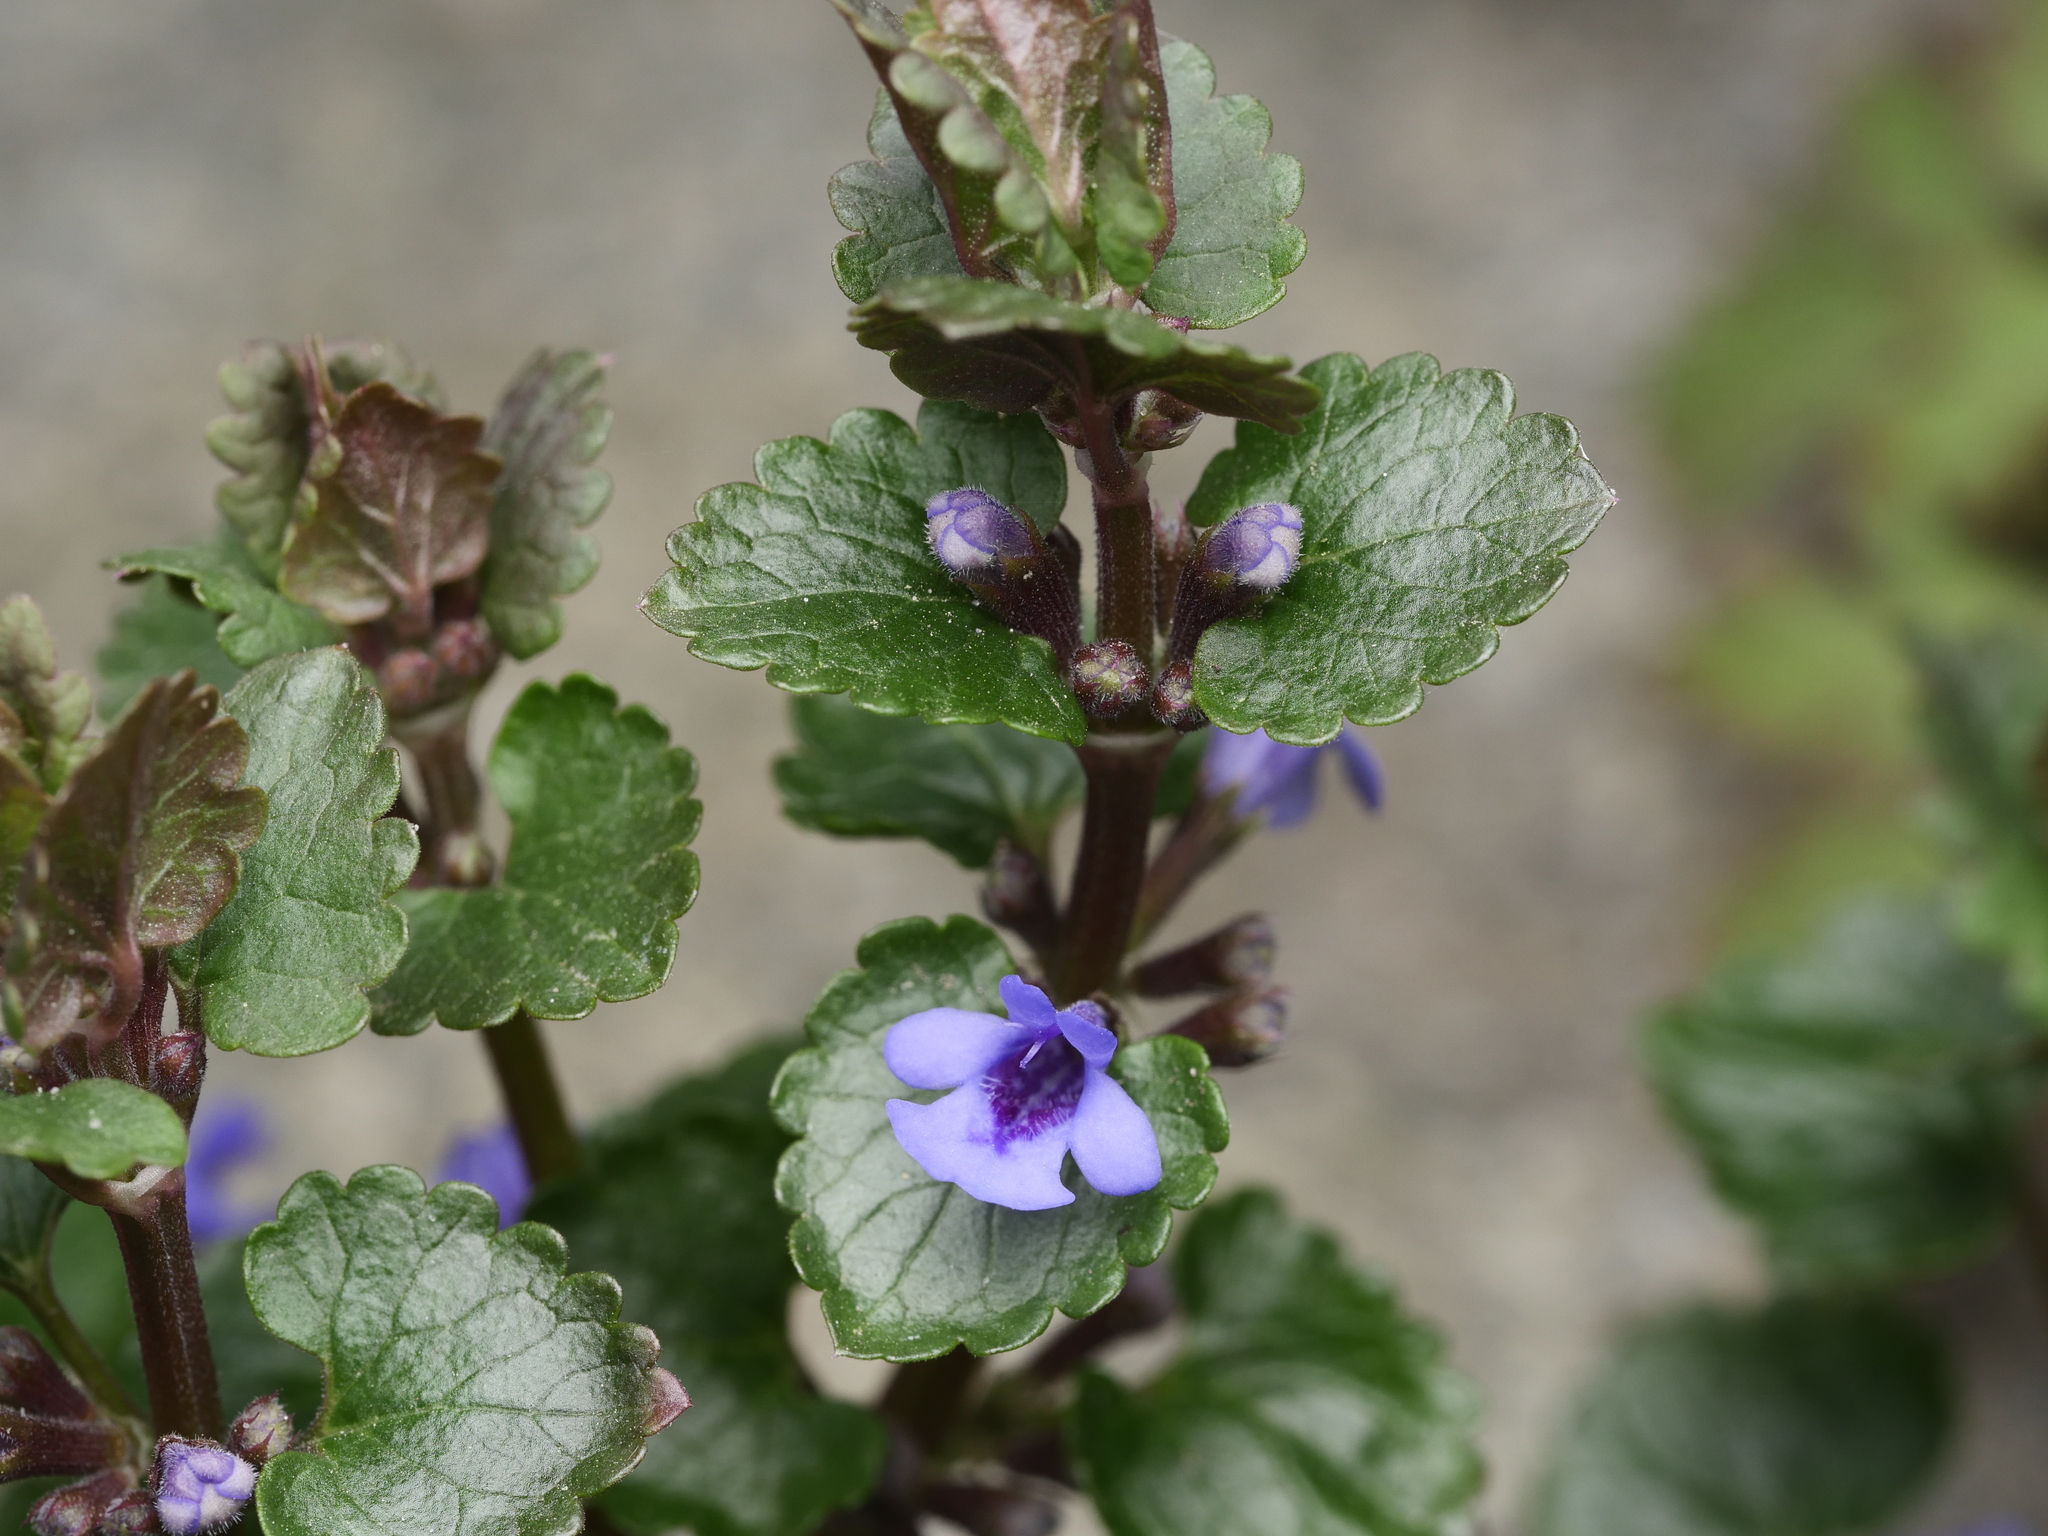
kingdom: Plantae
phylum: Tracheophyta
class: Magnoliopsida
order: Lamiales
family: Lamiaceae
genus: Glechoma
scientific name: Glechoma hederacea
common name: Ground ivy
